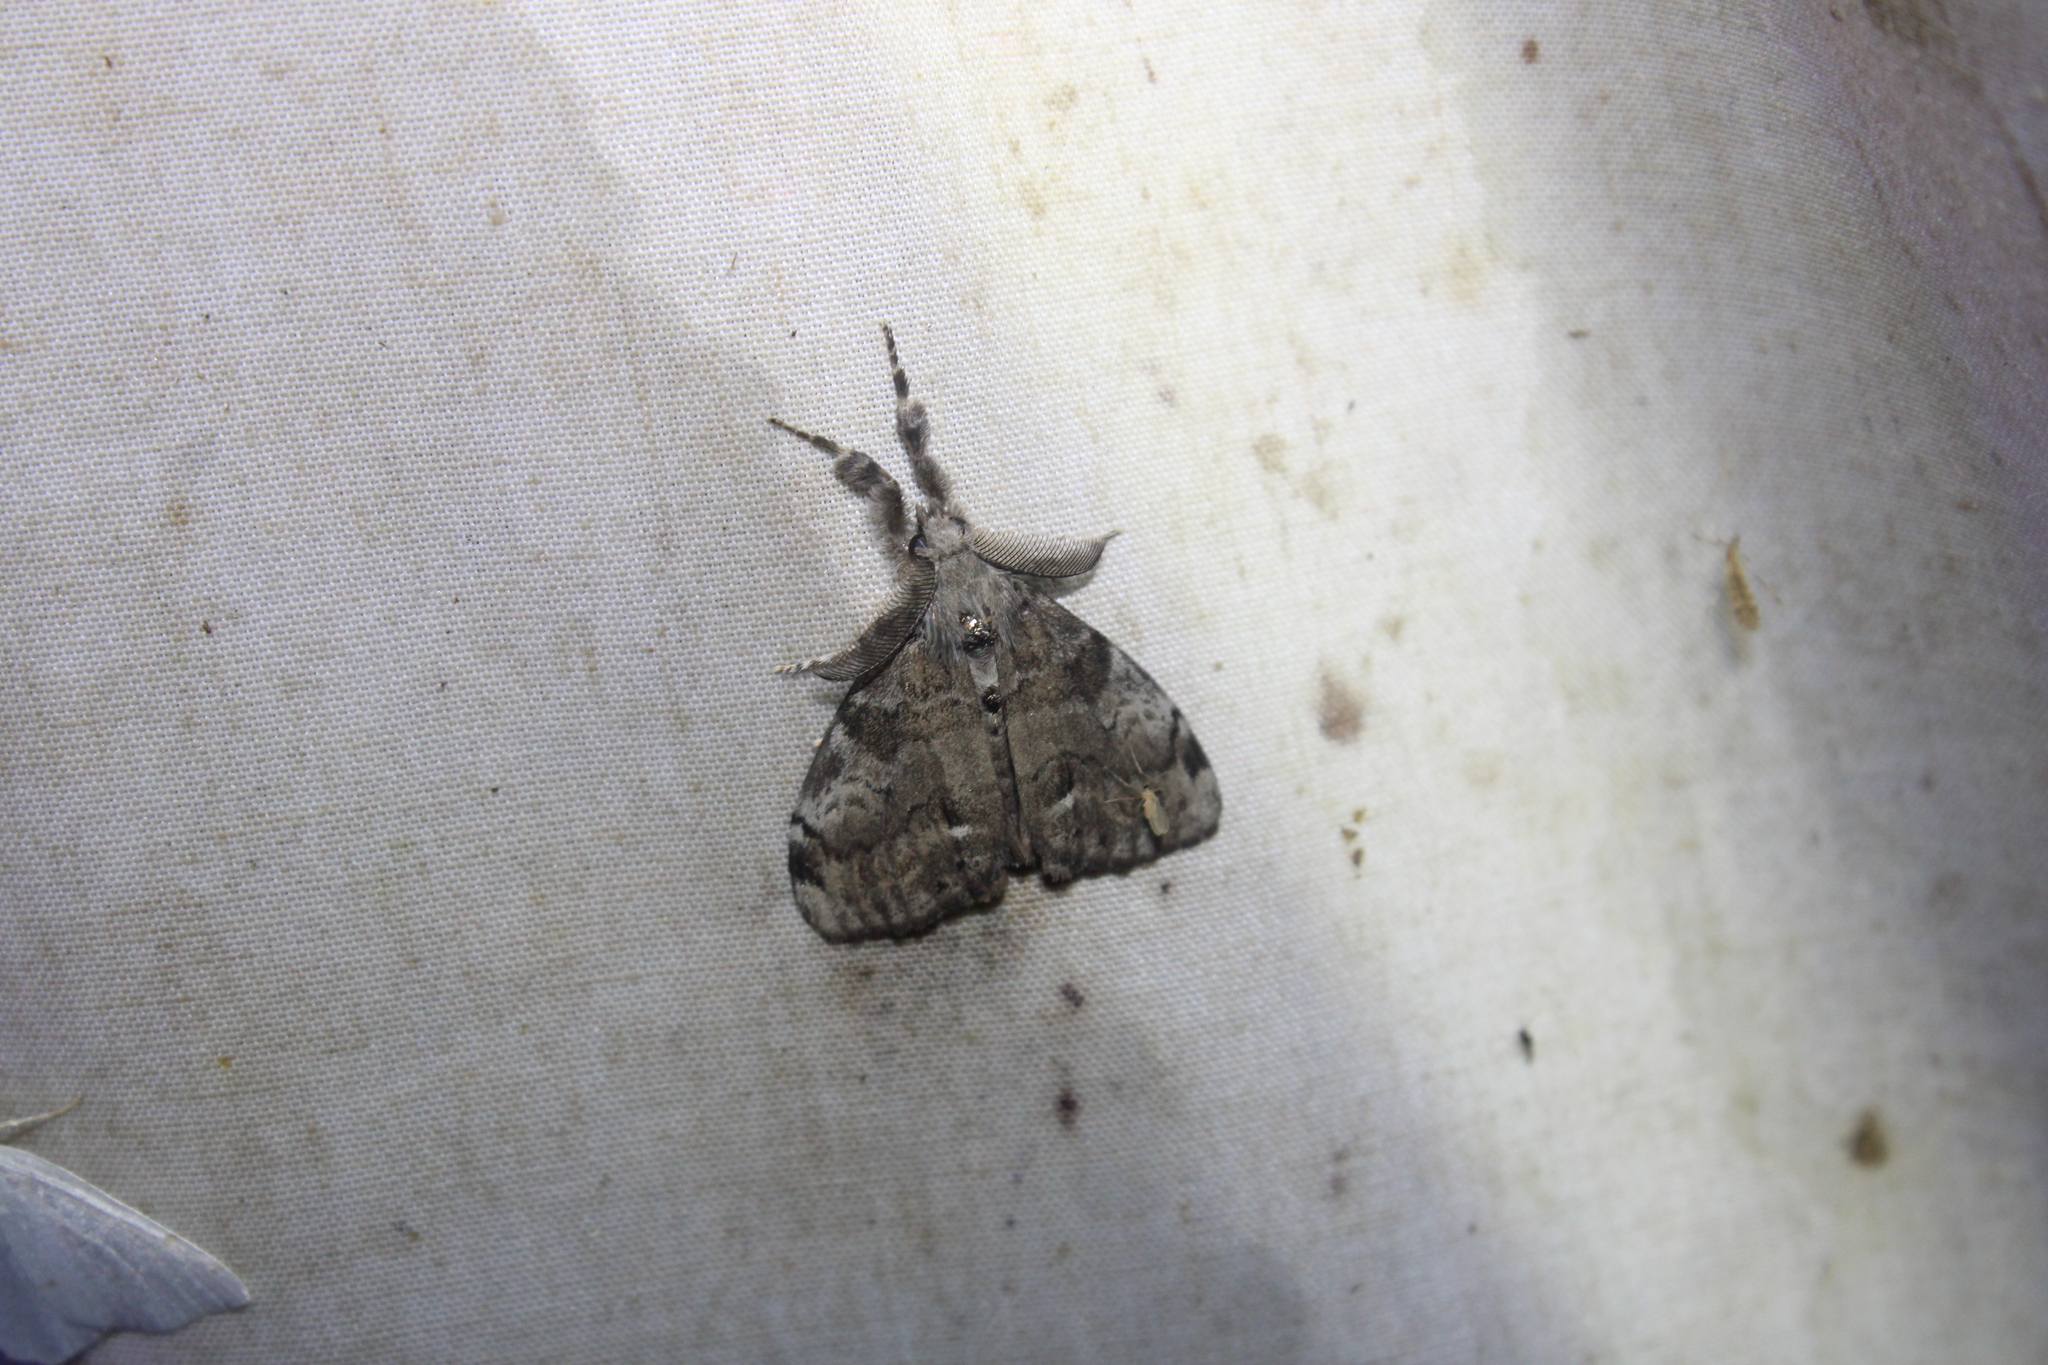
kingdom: Animalia
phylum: Arthropoda
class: Insecta
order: Lepidoptera
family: Erebidae
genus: Orgyia
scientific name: Orgyia leucostigma
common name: White-marked tussock moth
